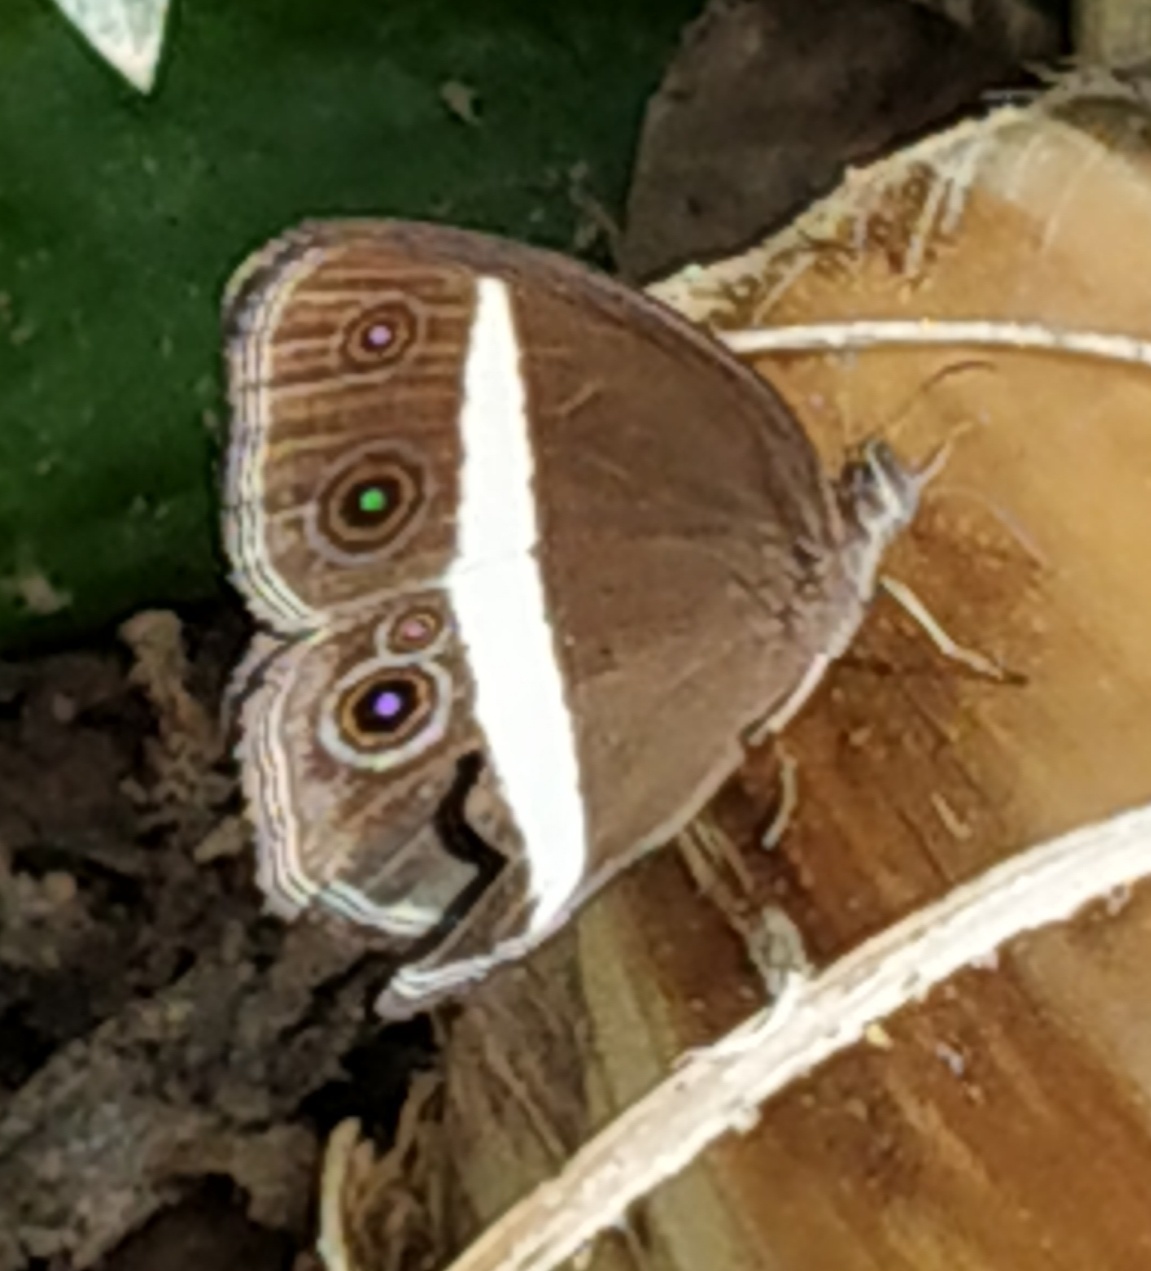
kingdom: Animalia
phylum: Arthropoda
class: Insecta
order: Lepidoptera
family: Nymphalidae
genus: Orsotriaena
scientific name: Orsotriaena medus
